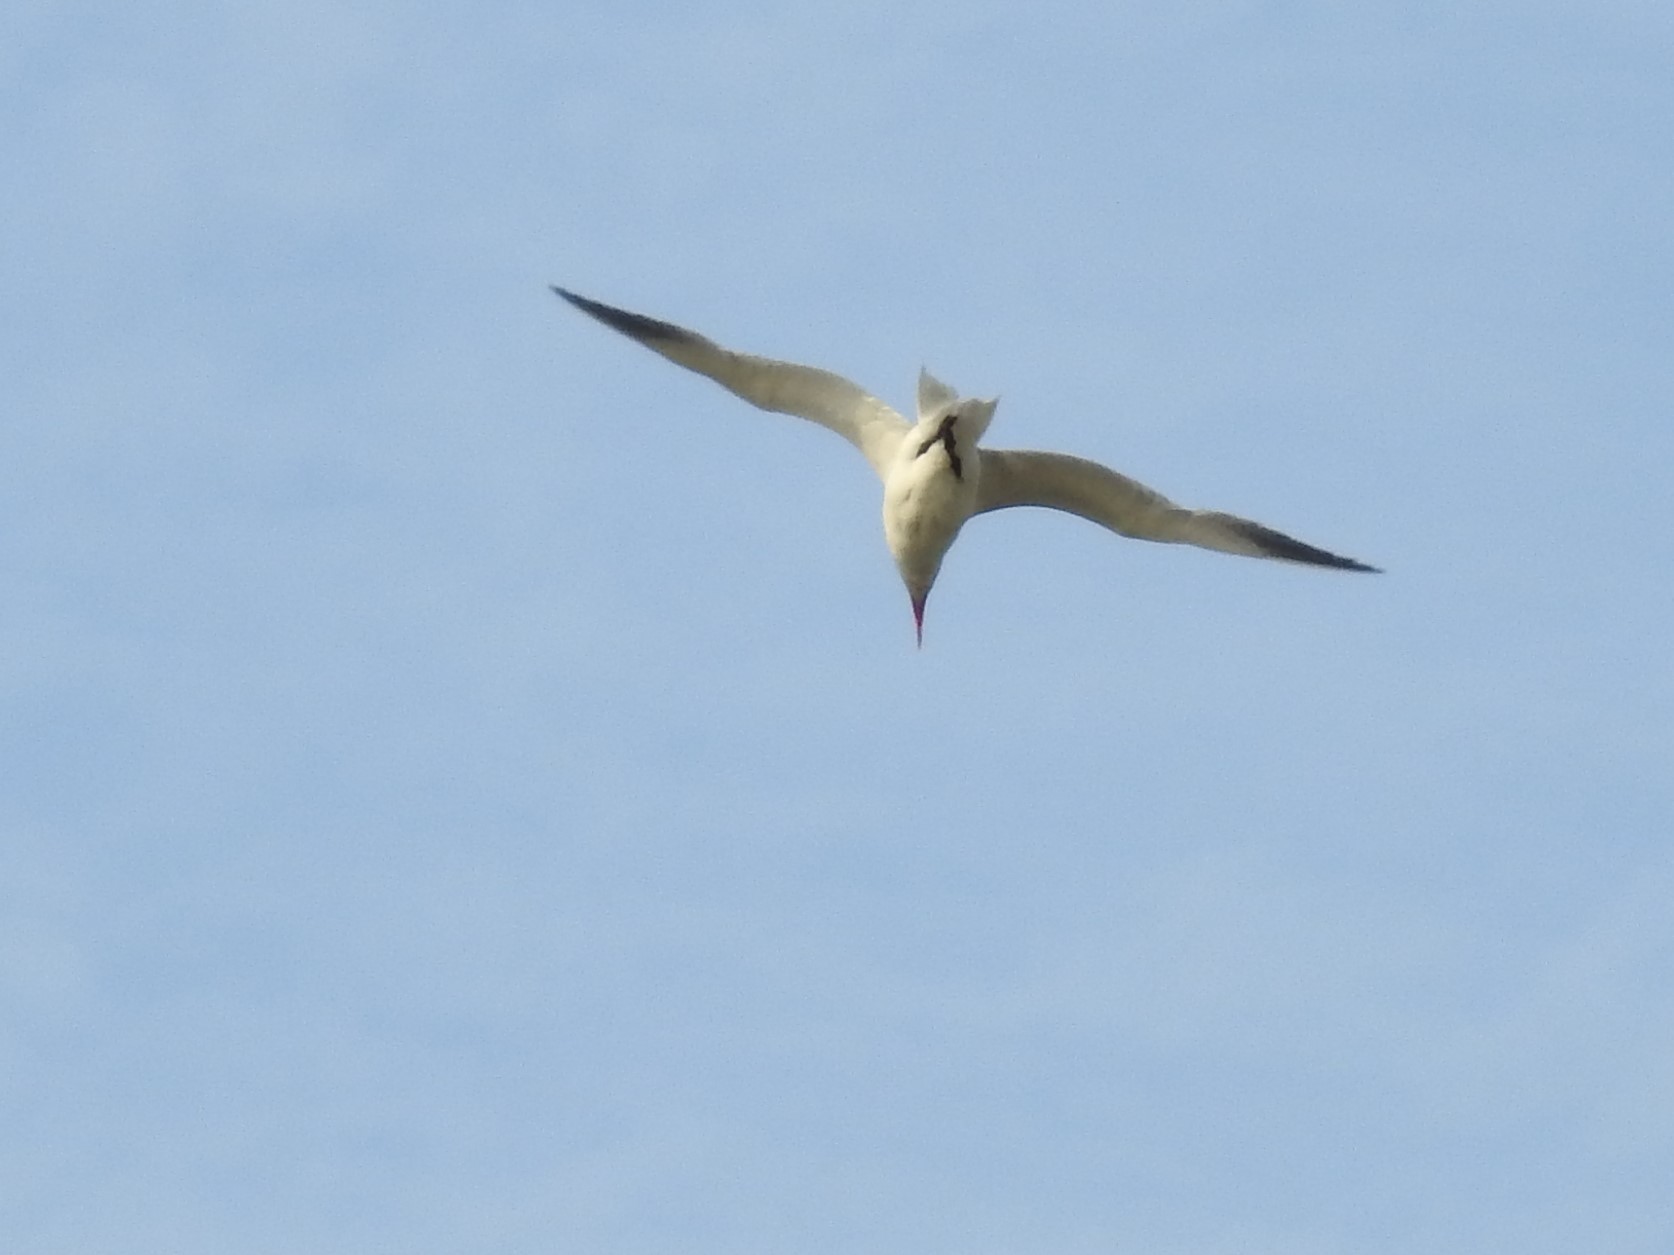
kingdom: Animalia
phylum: Chordata
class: Aves
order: Charadriiformes
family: Laridae
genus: Hydroprogne
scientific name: Hydroprogne caspia
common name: Caspian tern
